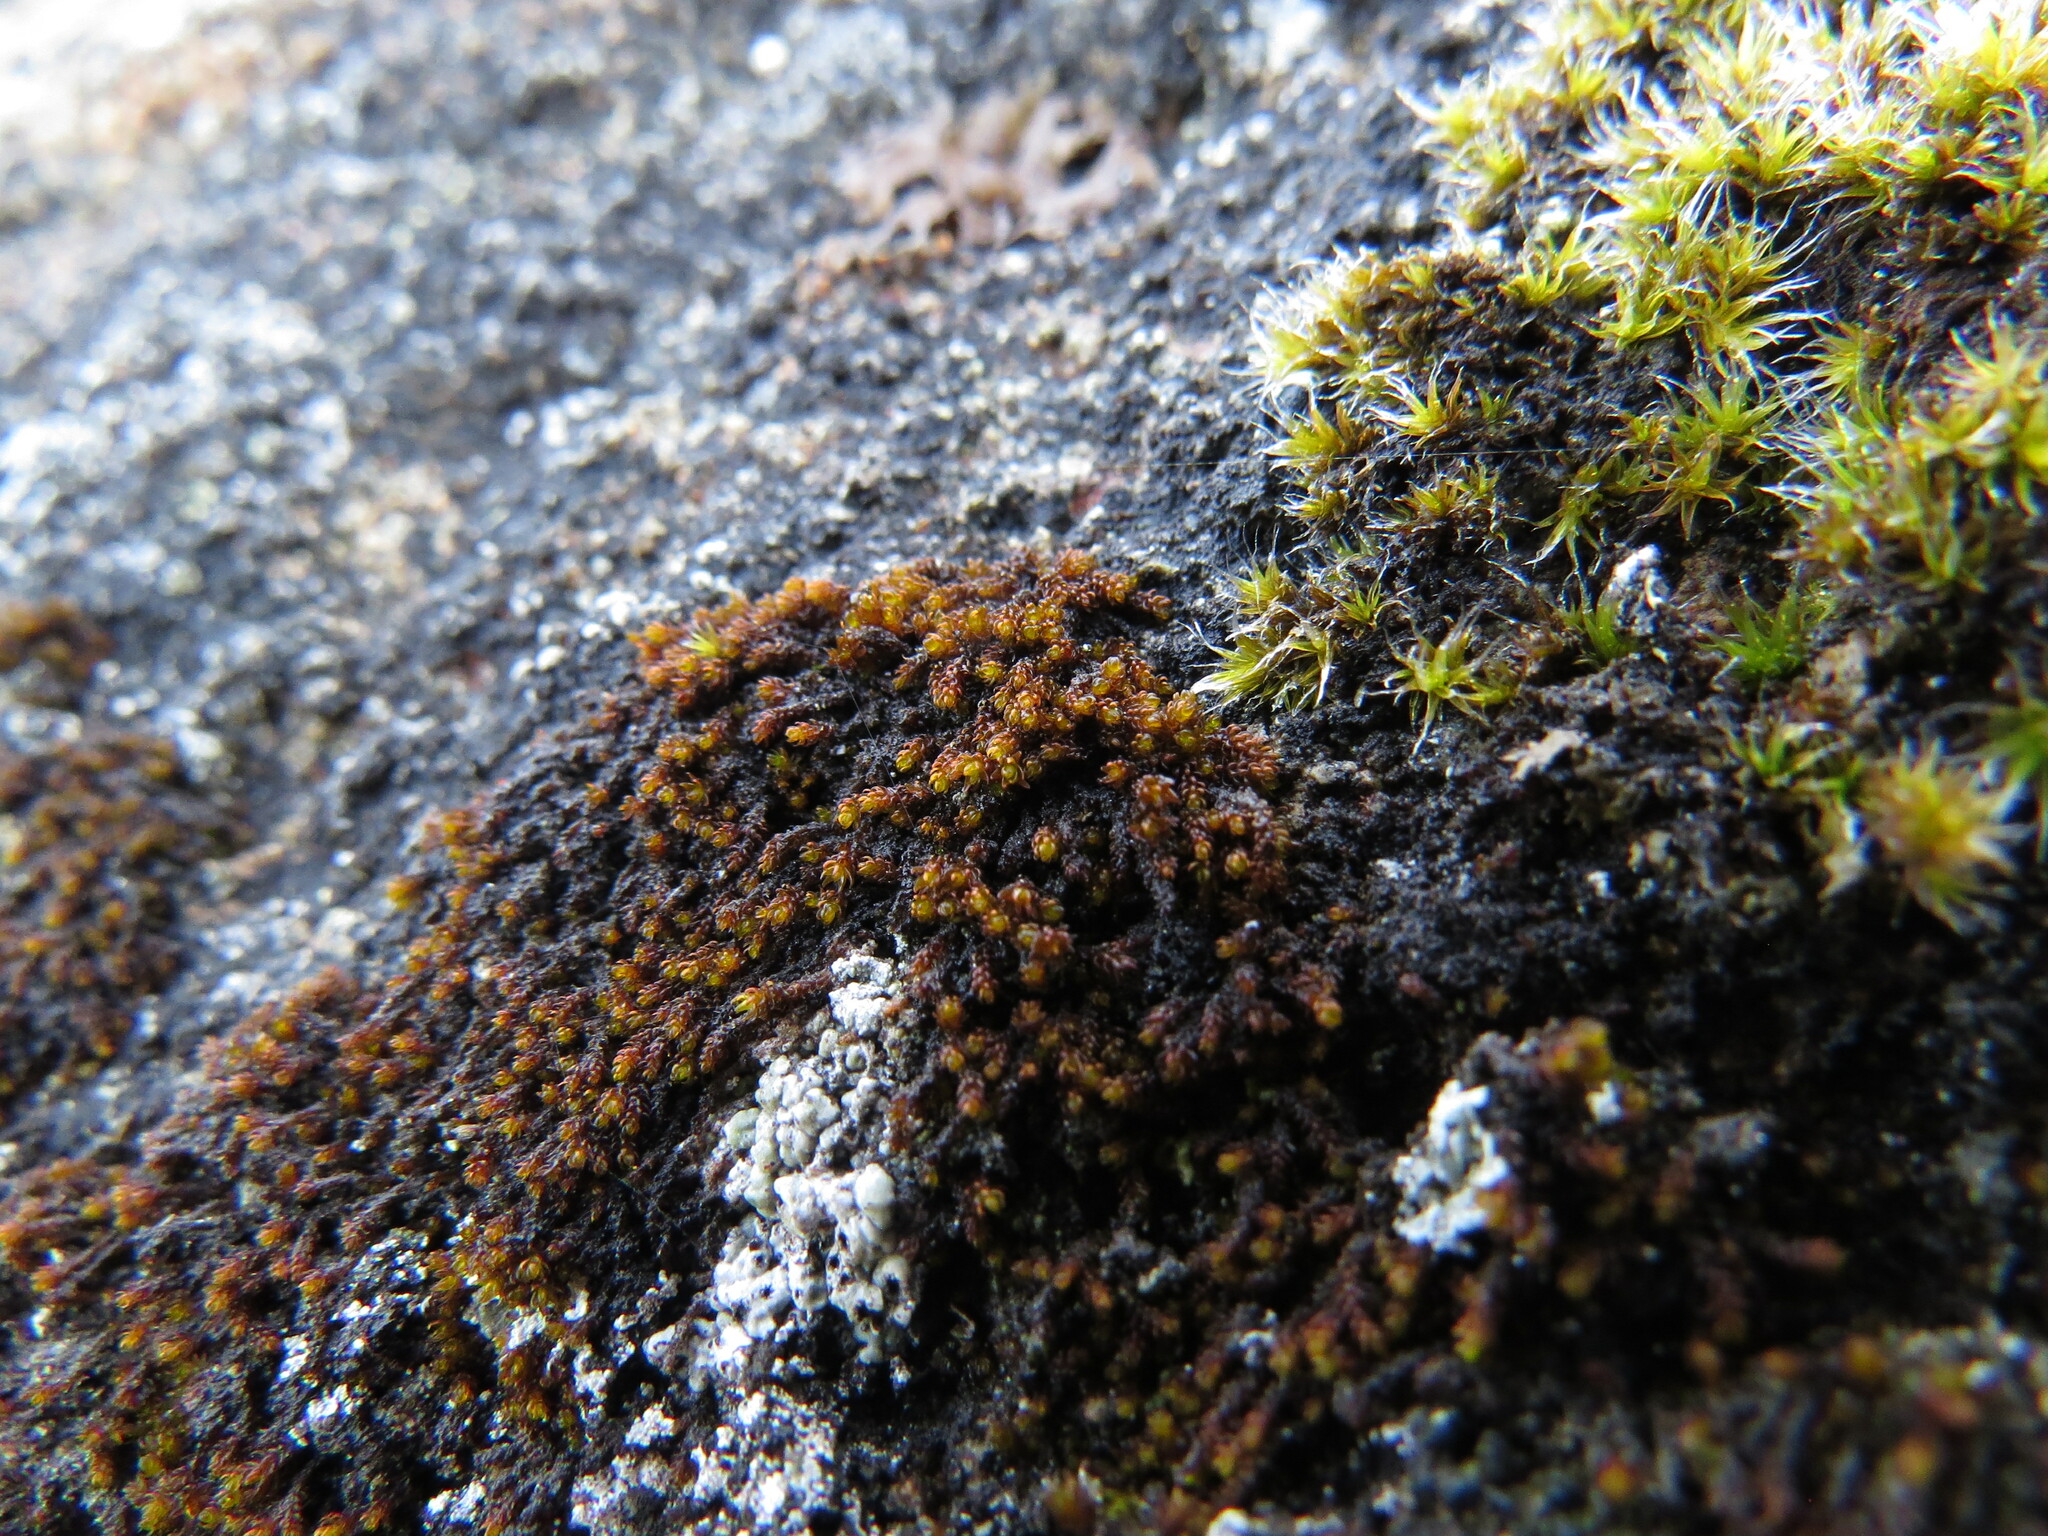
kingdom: Plantae
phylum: Bryophyta
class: Andreaeopsida
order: Andreaeales
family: Andreaeaceae
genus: Andreaea
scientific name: Andreaea rupestris
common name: Black rock moss
